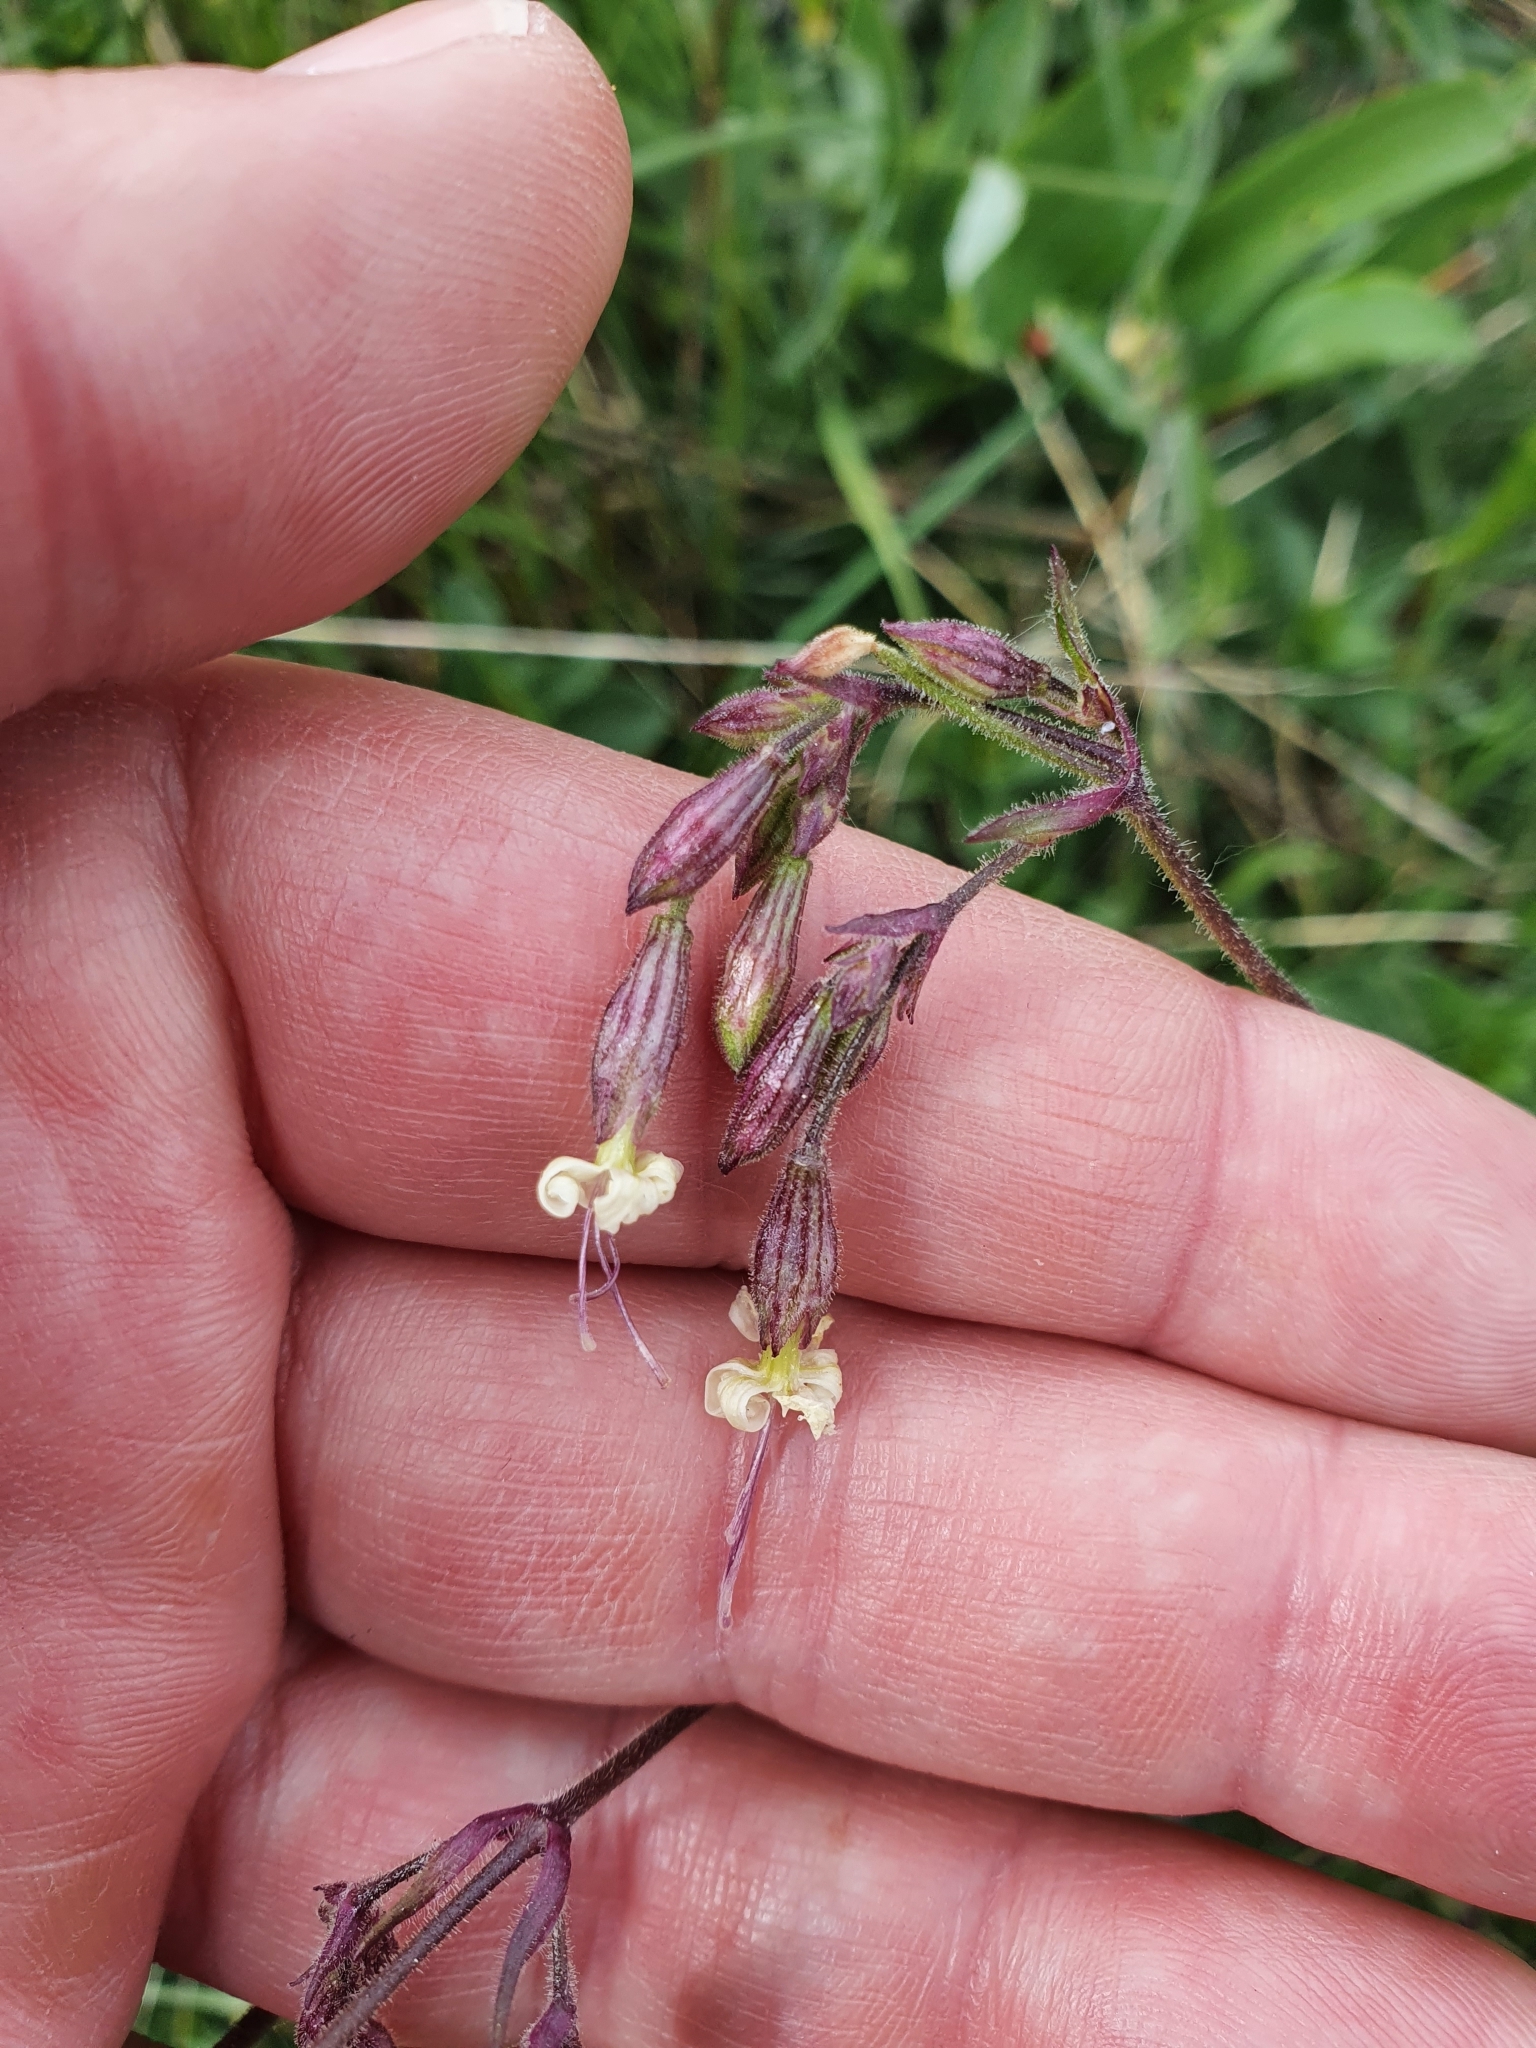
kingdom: Plantae
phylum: Tracheophyta
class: Magnoliopsida
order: Caryophyllales
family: Caryophyllaceae
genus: Silene
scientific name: Silene nutans
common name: Nottingham catchfly
